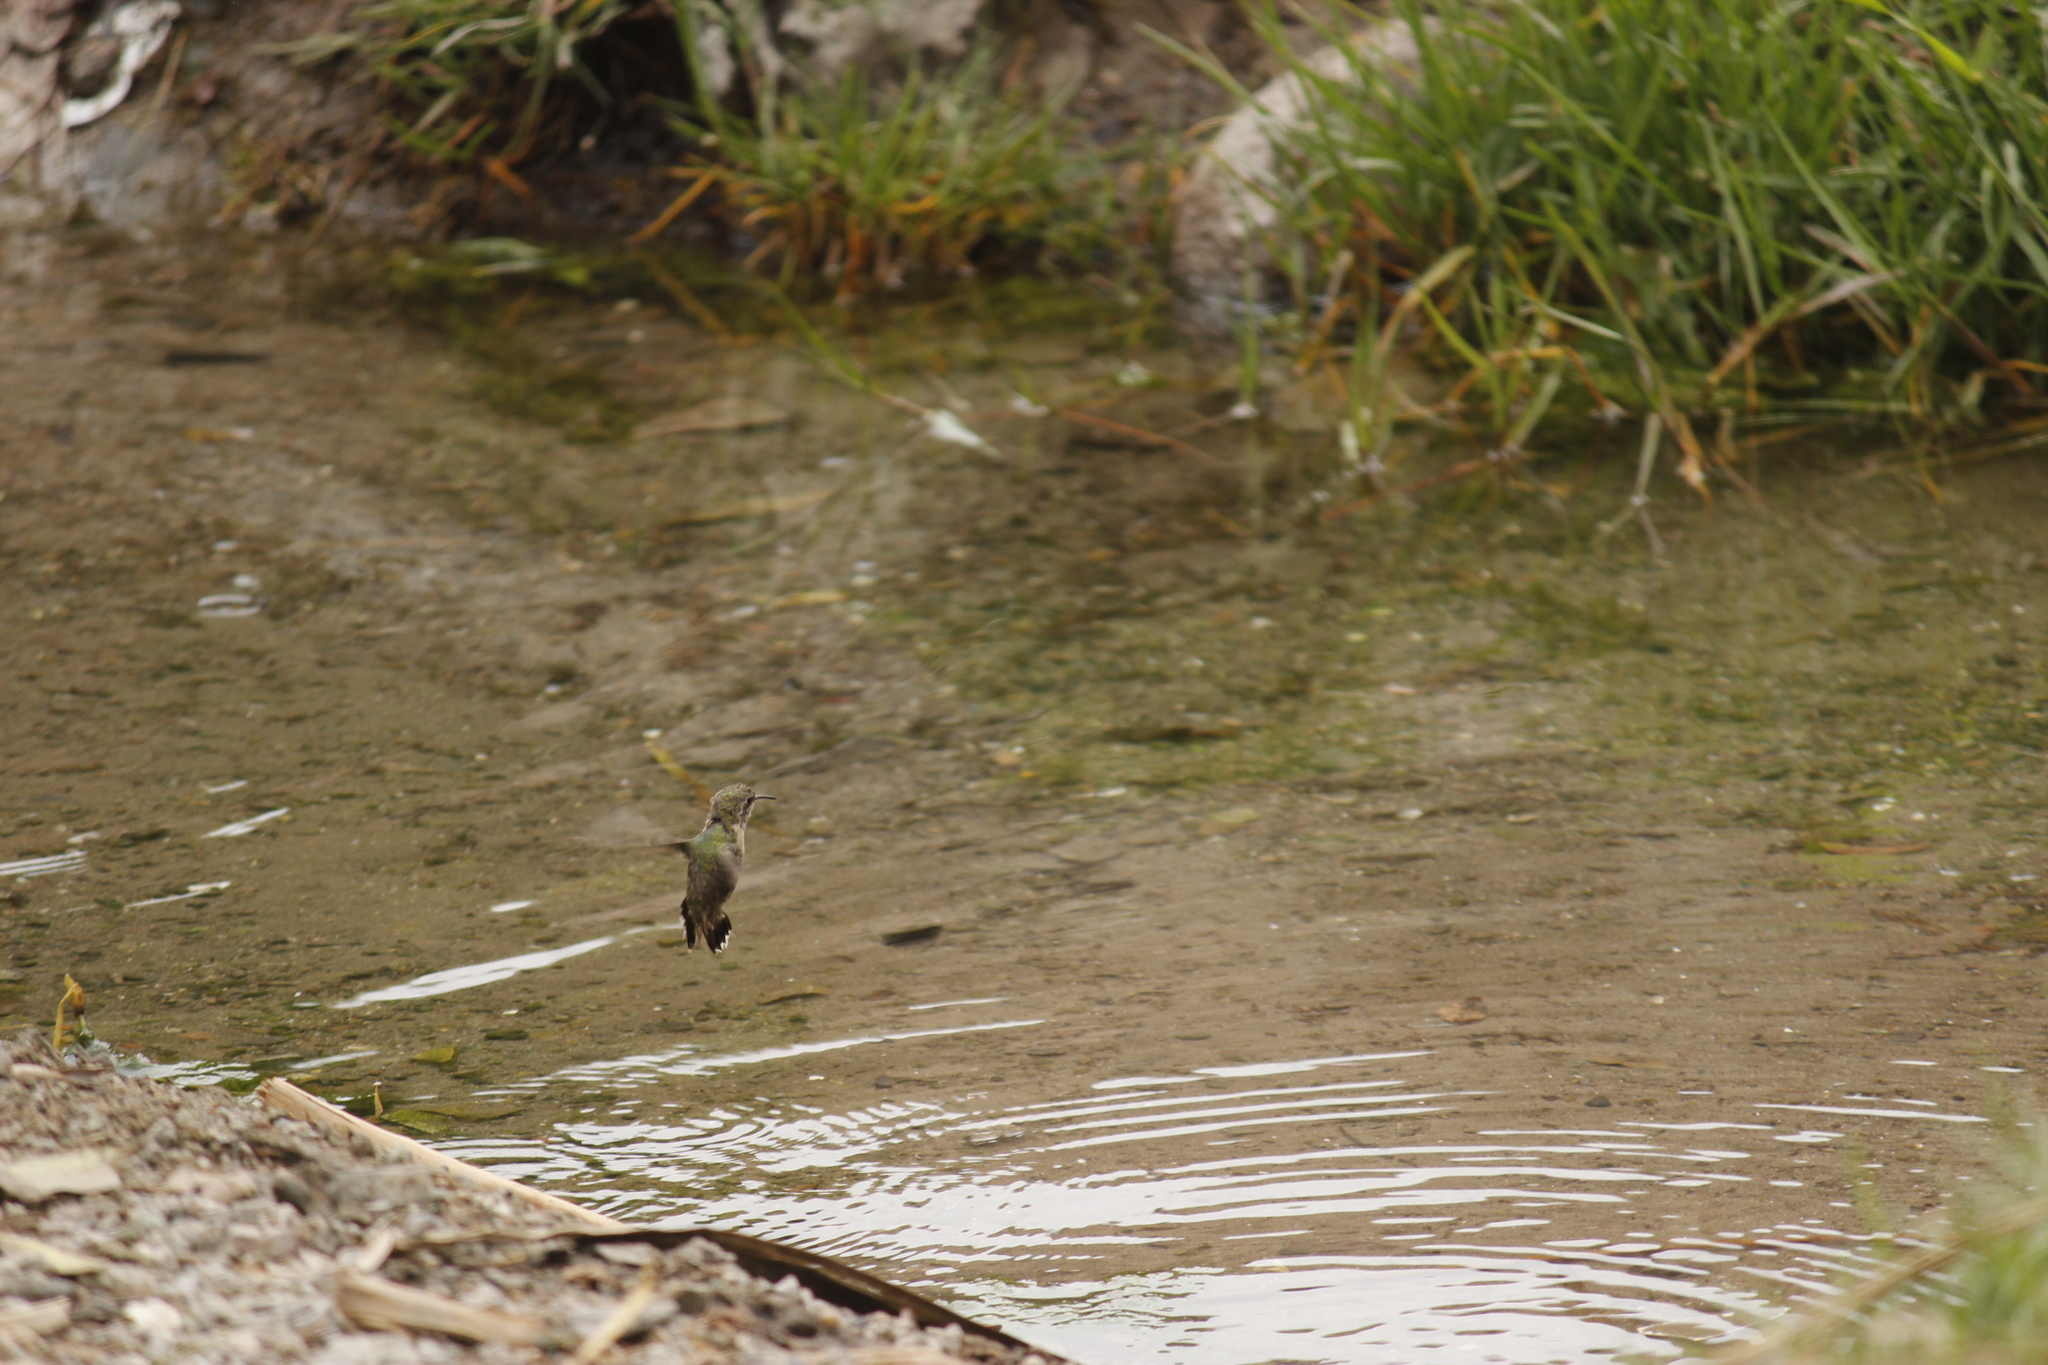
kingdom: Animalia
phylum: Chordata
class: Aves
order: Apodiformes
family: Trochilidae
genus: Myrtis
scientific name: Myrtis fanny
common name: Purple-collared woodstar
